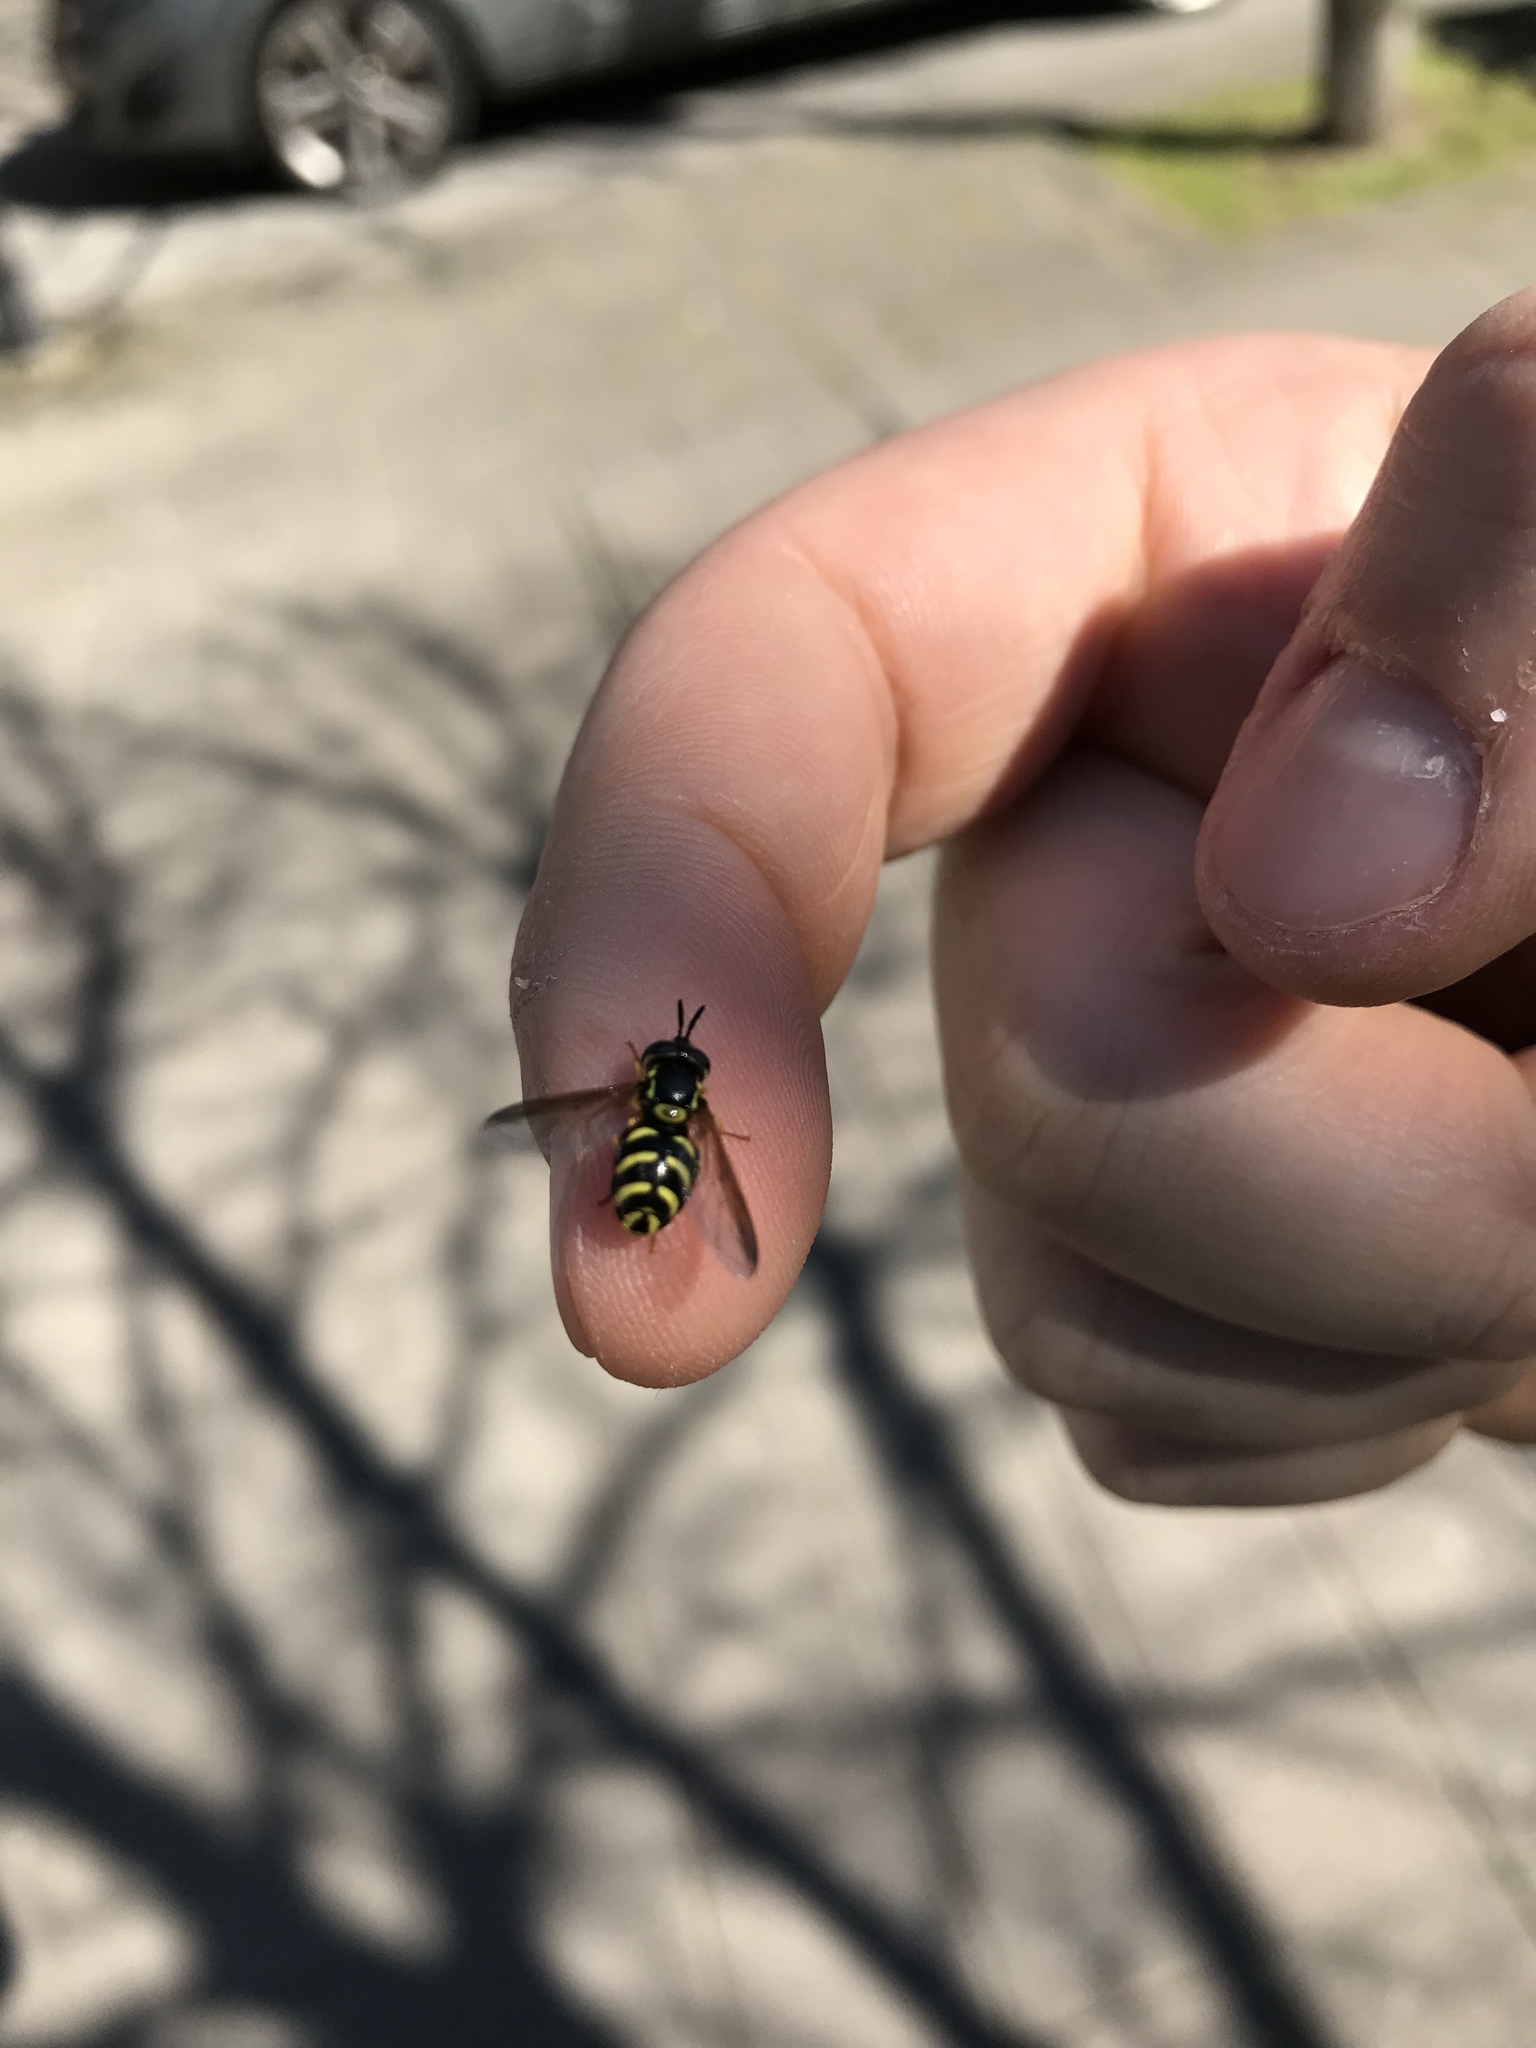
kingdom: Animalia
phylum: Arthropoda
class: Insecta
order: Diptera
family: Syrphidae
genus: Chrysotoxum
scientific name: Chrysotoxum intermedium
